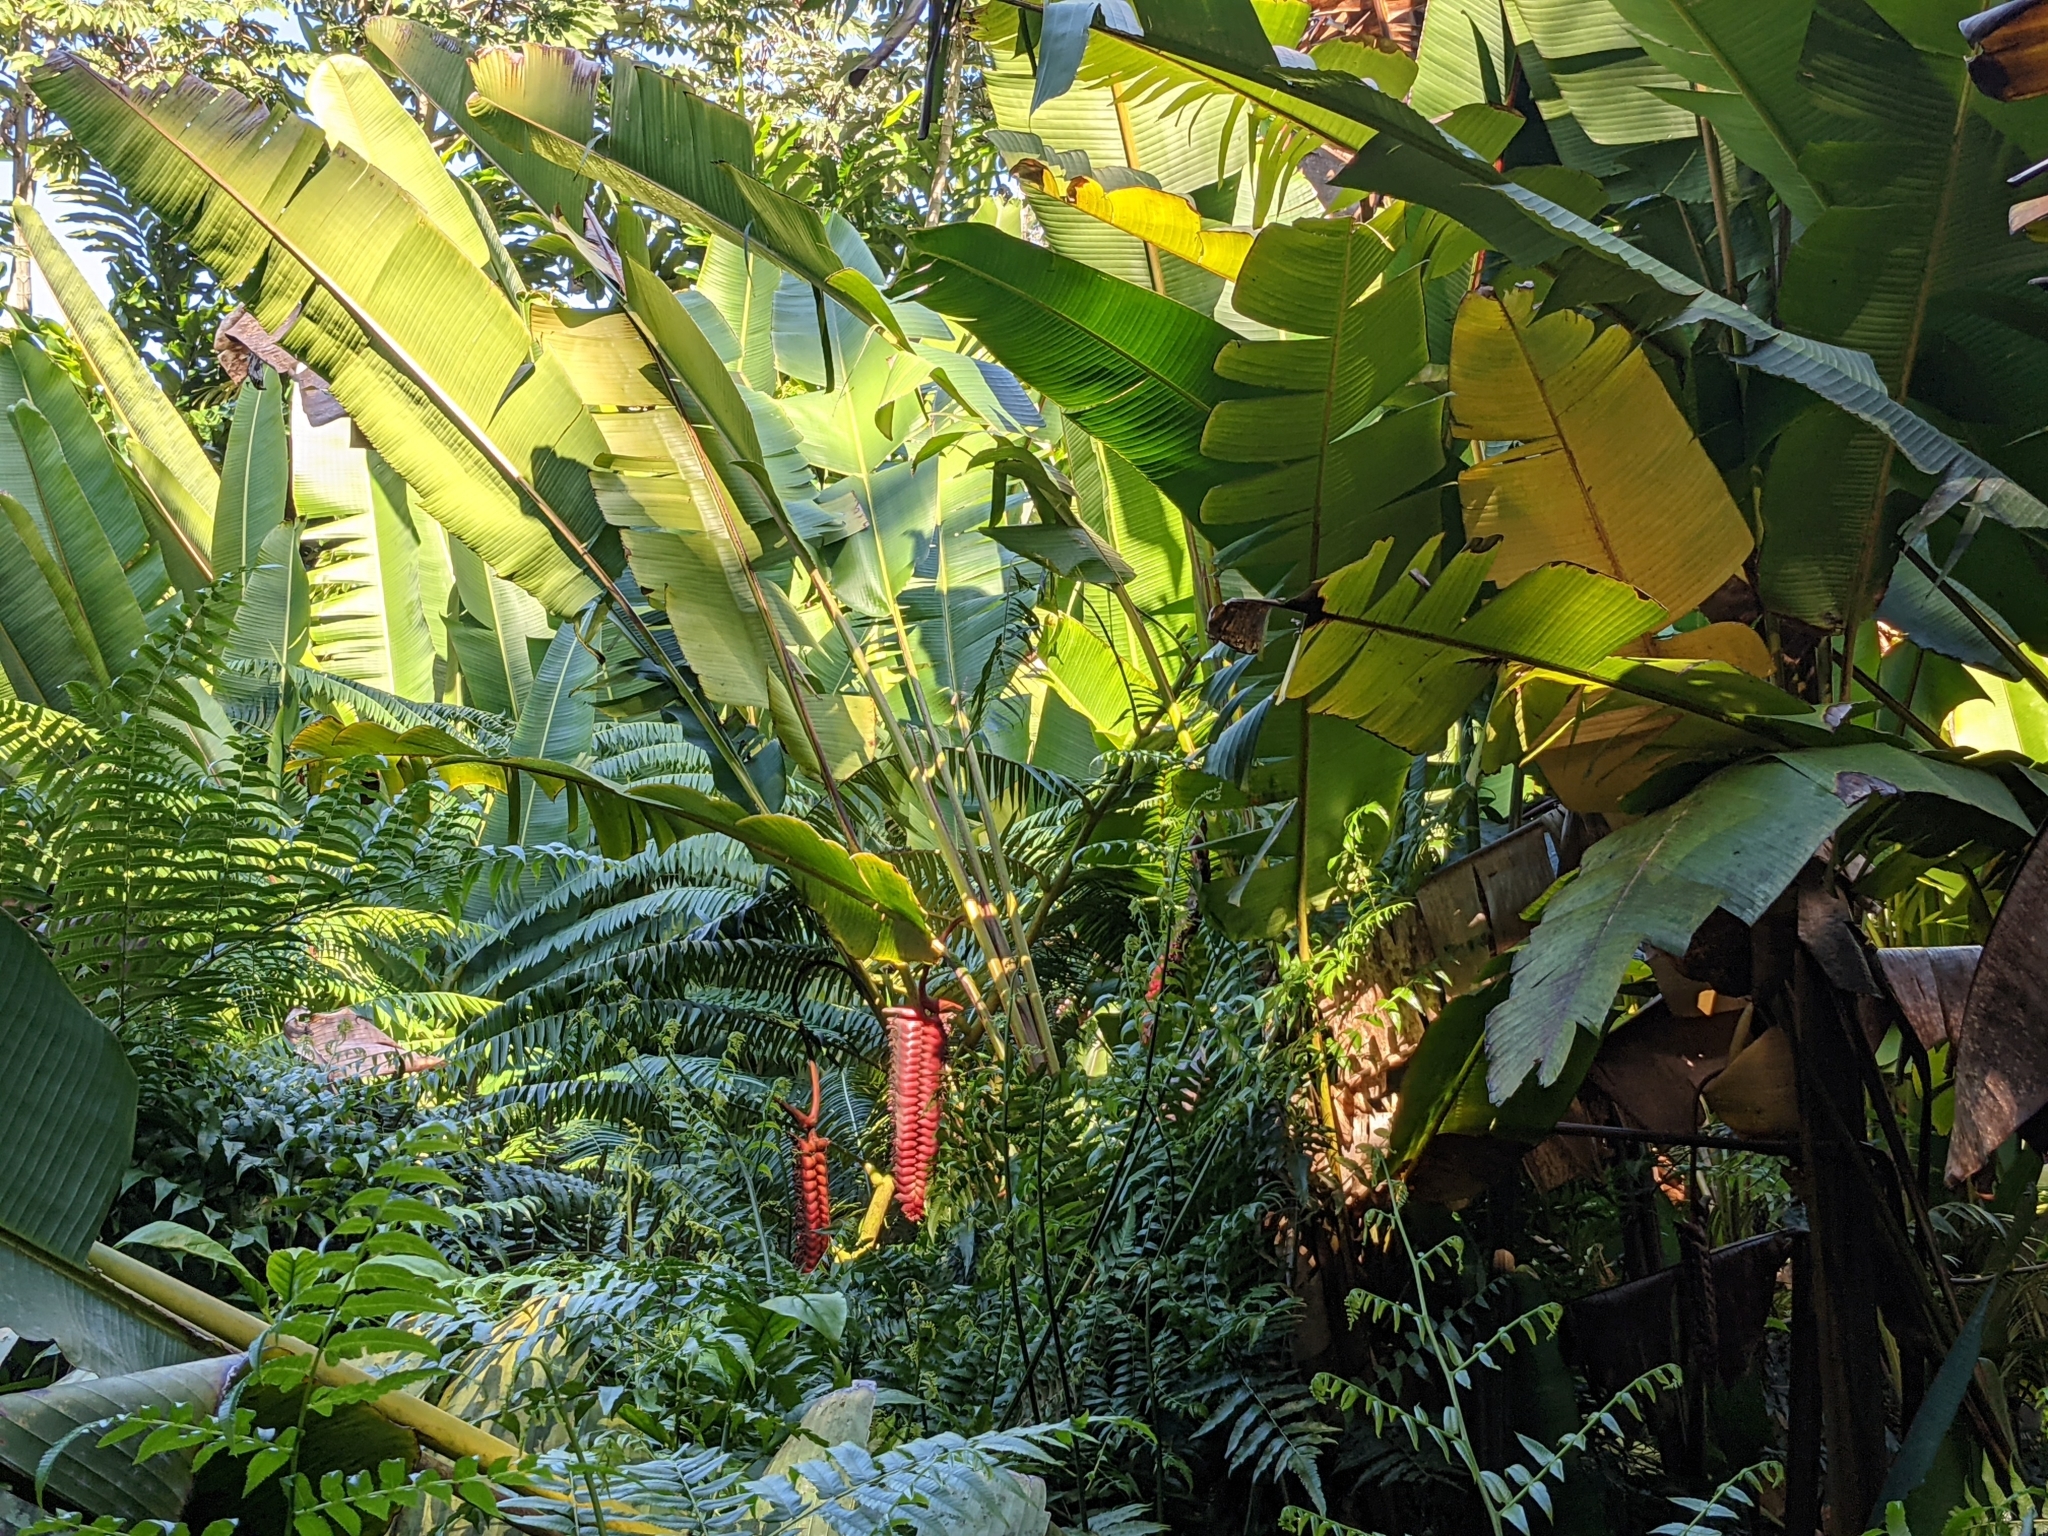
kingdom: Plantae
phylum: Tracheophyta
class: Liliopsida
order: Zingiberales
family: Heliconiaceae
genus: Heliconia
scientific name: Heliconia mariae
